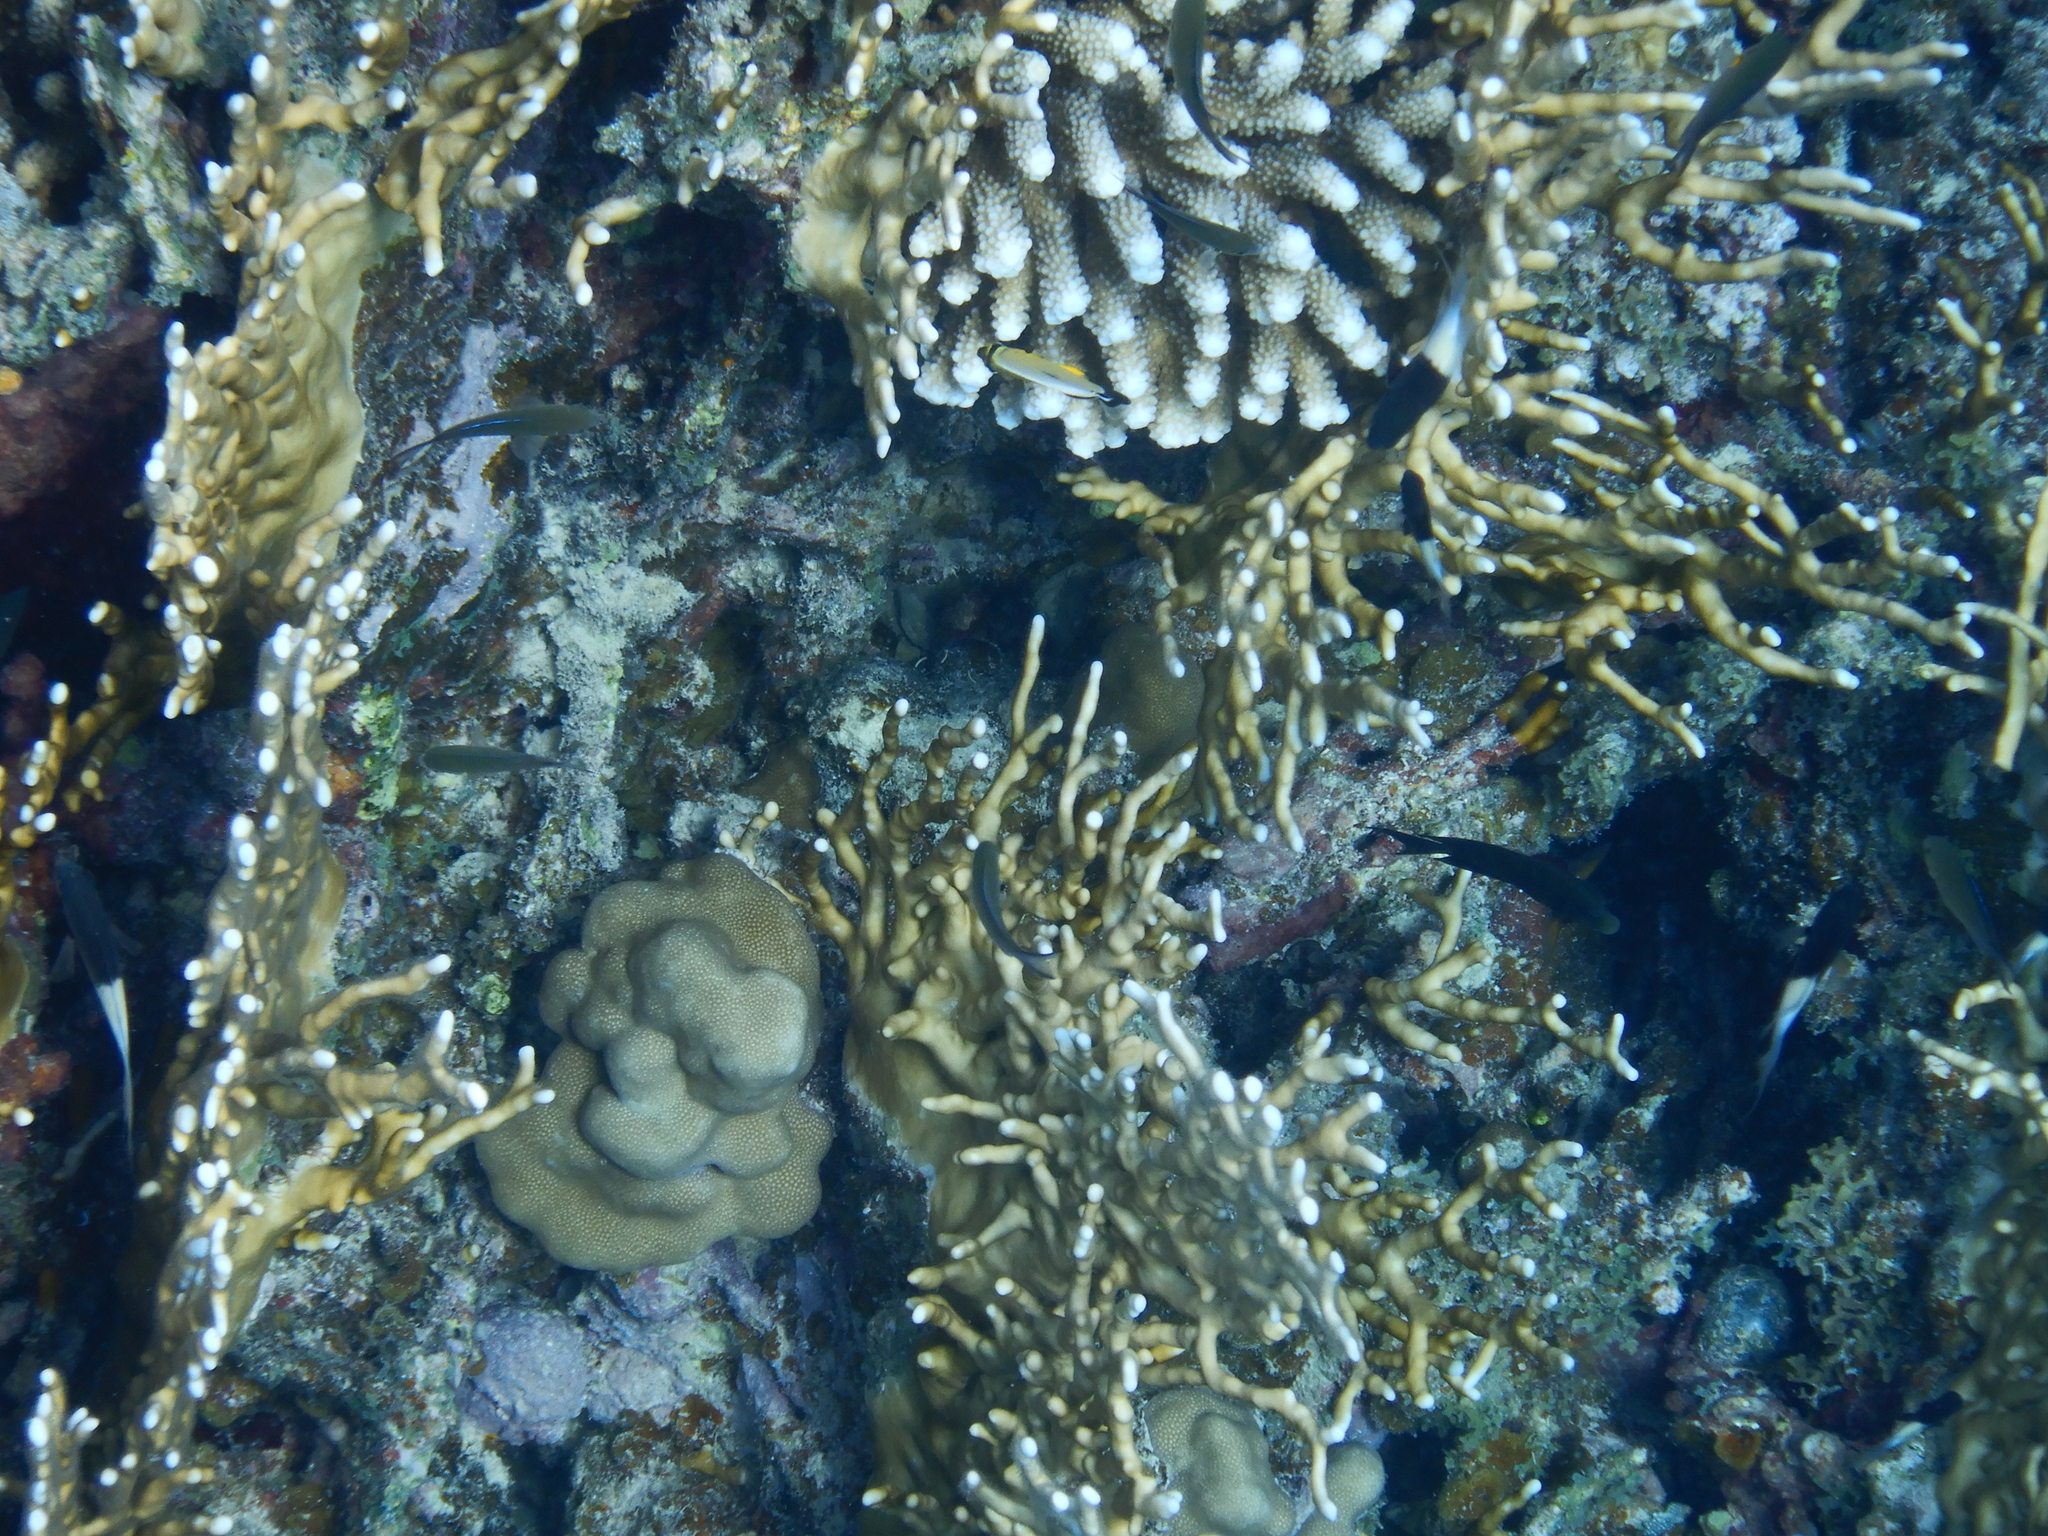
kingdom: Animalia
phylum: Cnidaria
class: Hydrozoa
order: Anthoathecata
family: Milleporidae
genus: Millepora
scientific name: Millepora dichotoma
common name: Ramified fire coral
